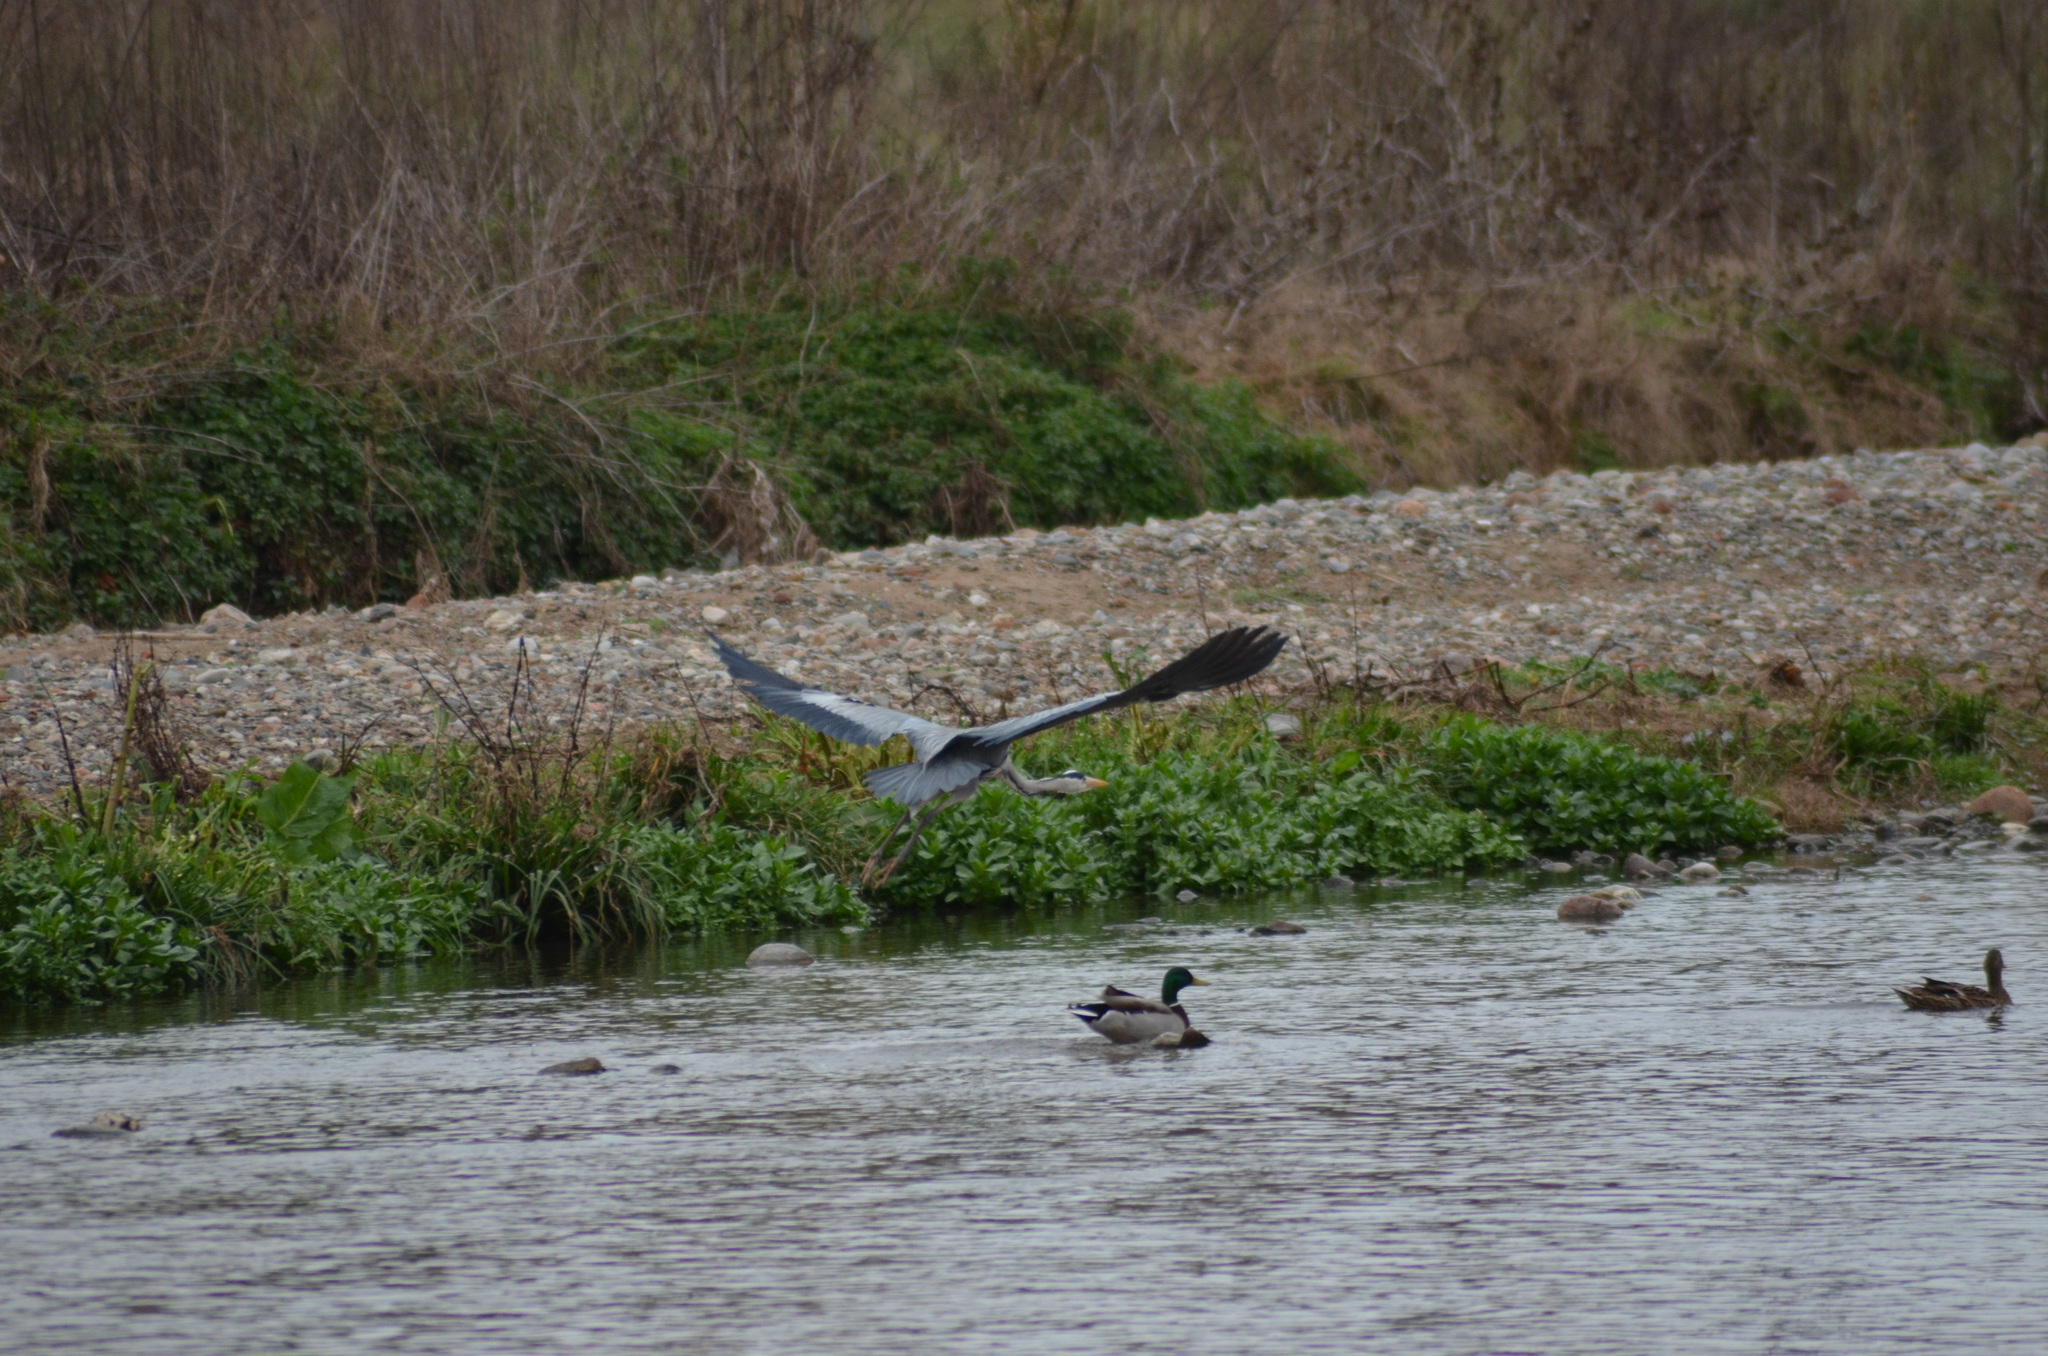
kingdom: Animalia
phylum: Chordata
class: Aves
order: Pelecaniformes
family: Ardeidae
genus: Ardea
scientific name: Ardea cinerea
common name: Grey heron
